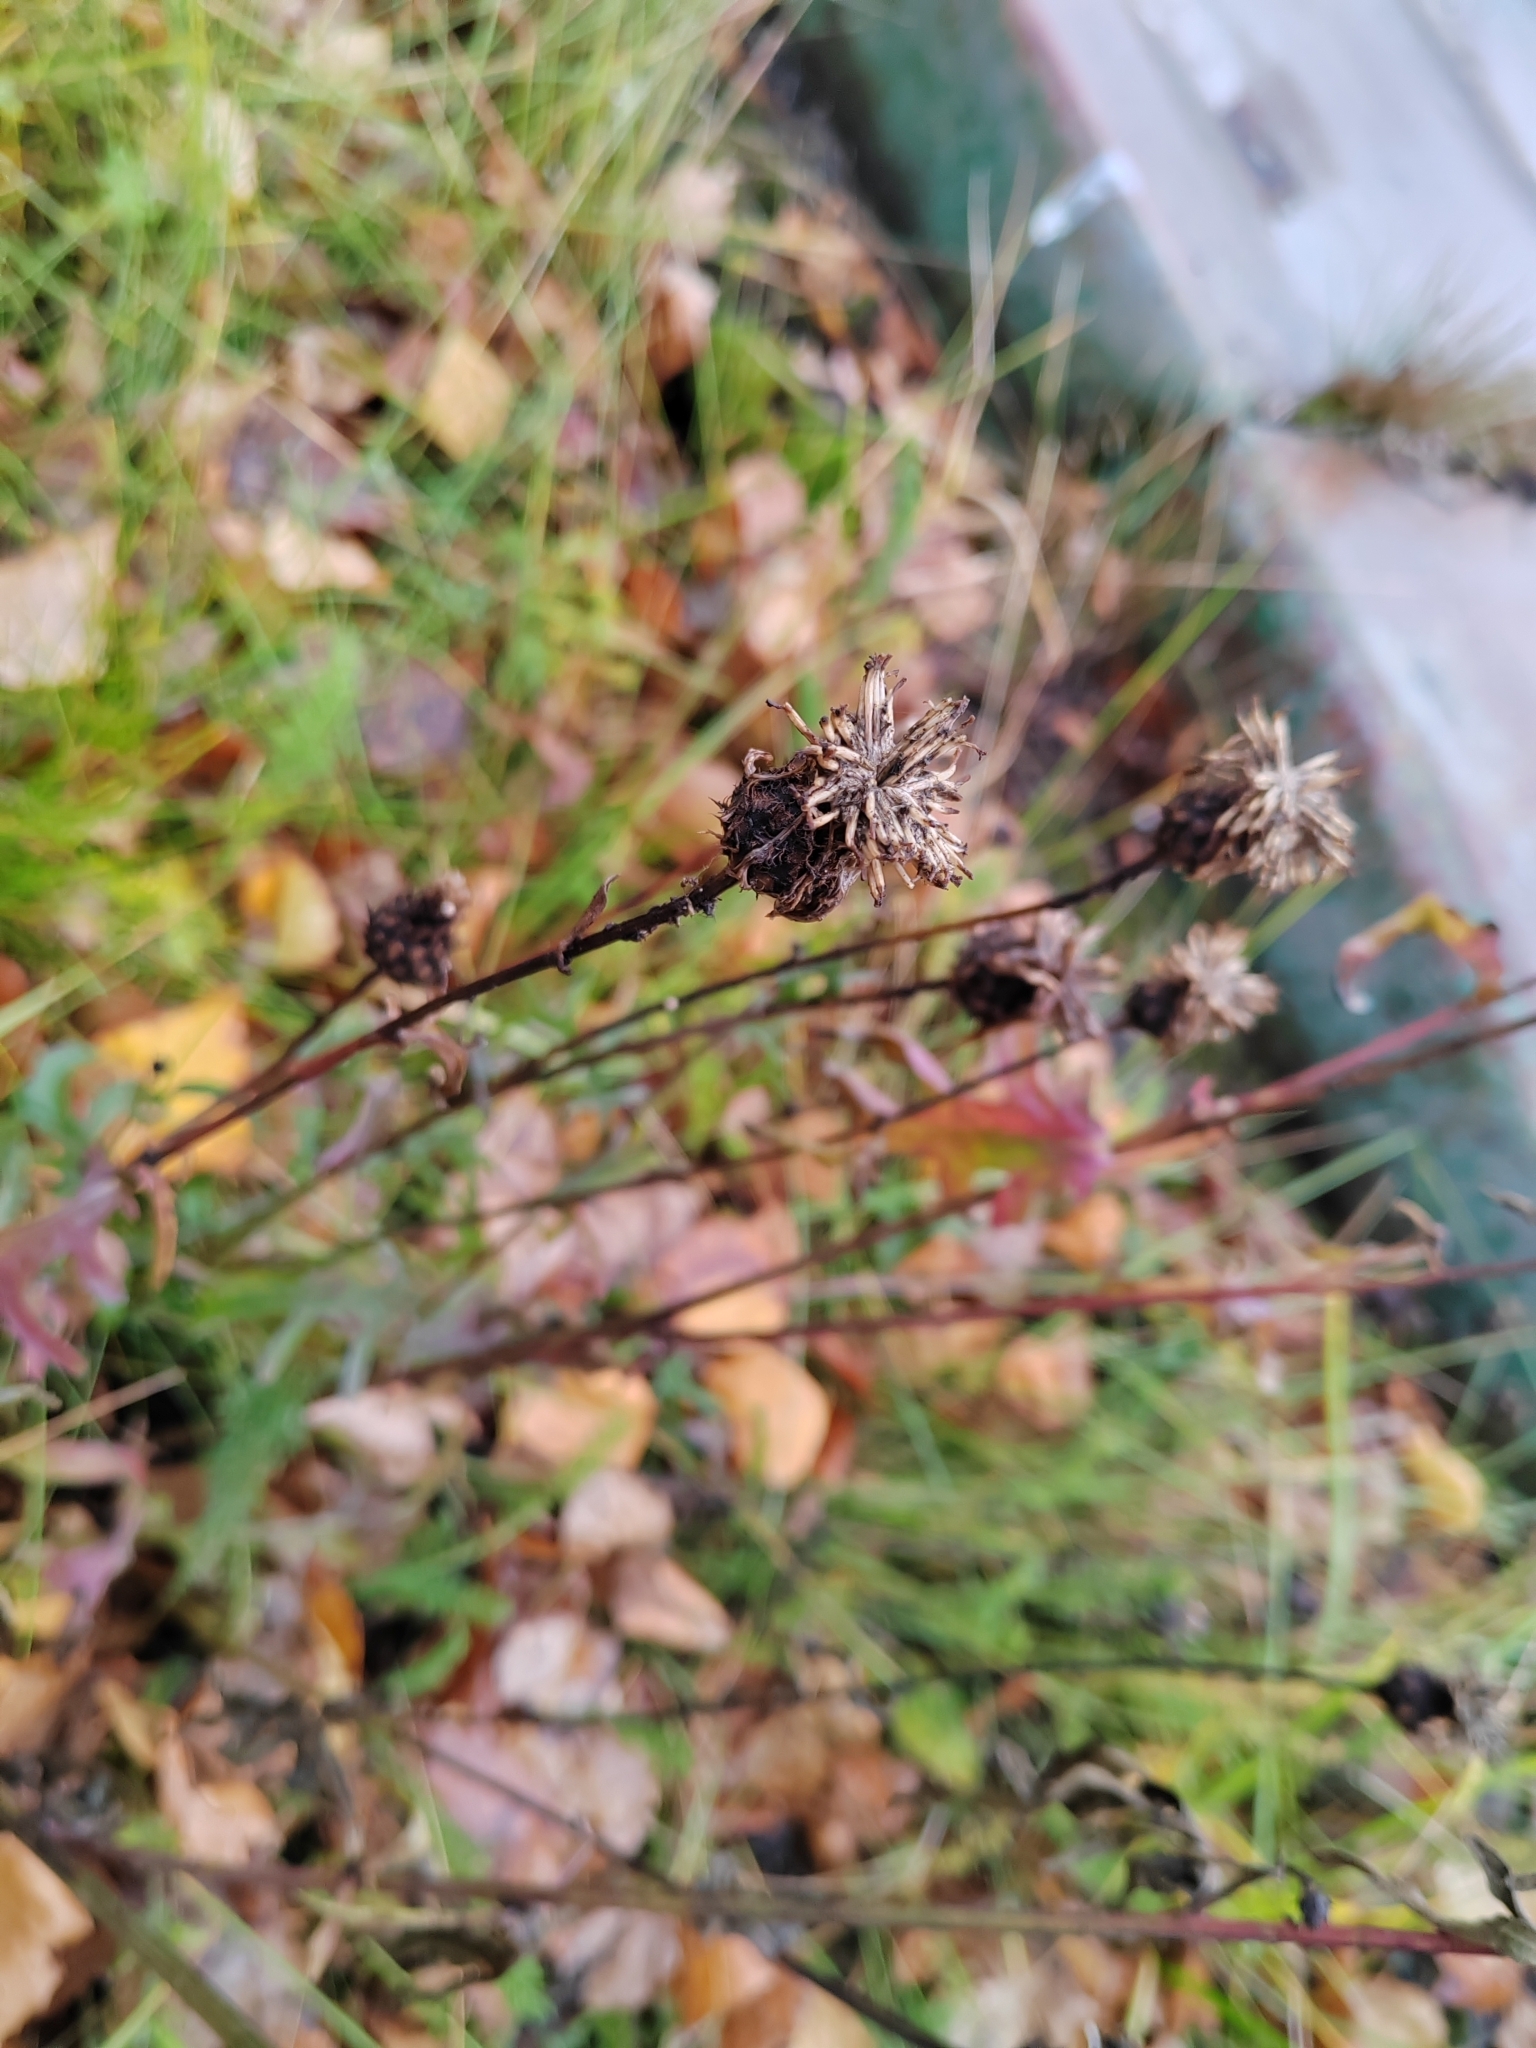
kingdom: Plantae
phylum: Tracheophyta
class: Magnoliopsida
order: Asterales
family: Asteraceae
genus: Centaurea
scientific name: Centaurea scabiosa
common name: Greater knapweed
